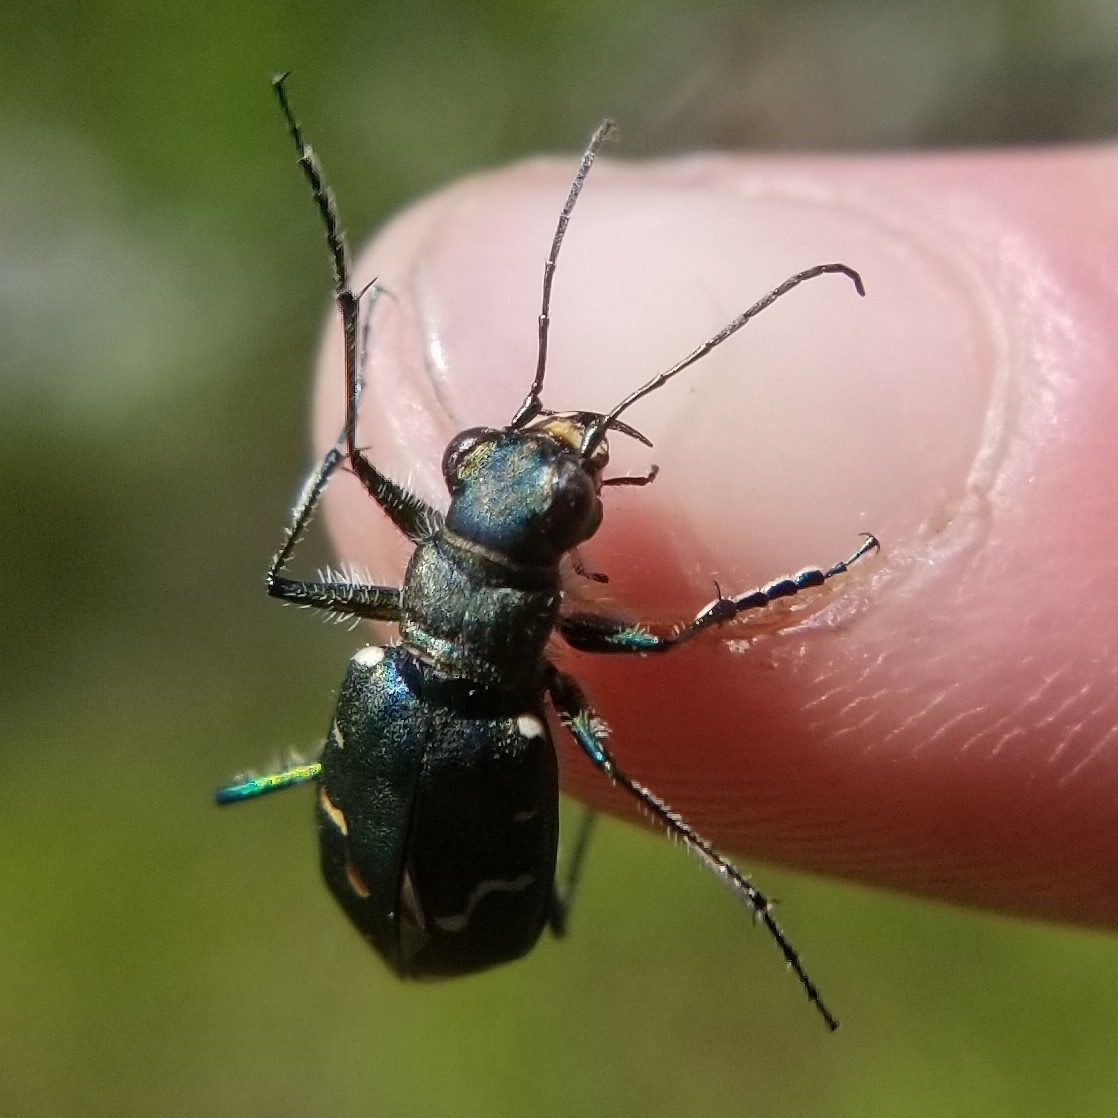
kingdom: Animalia
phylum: Arthropoda
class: Insecta
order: Coleoptera
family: Carabidae
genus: Cicindela
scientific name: Cicindela depressula
